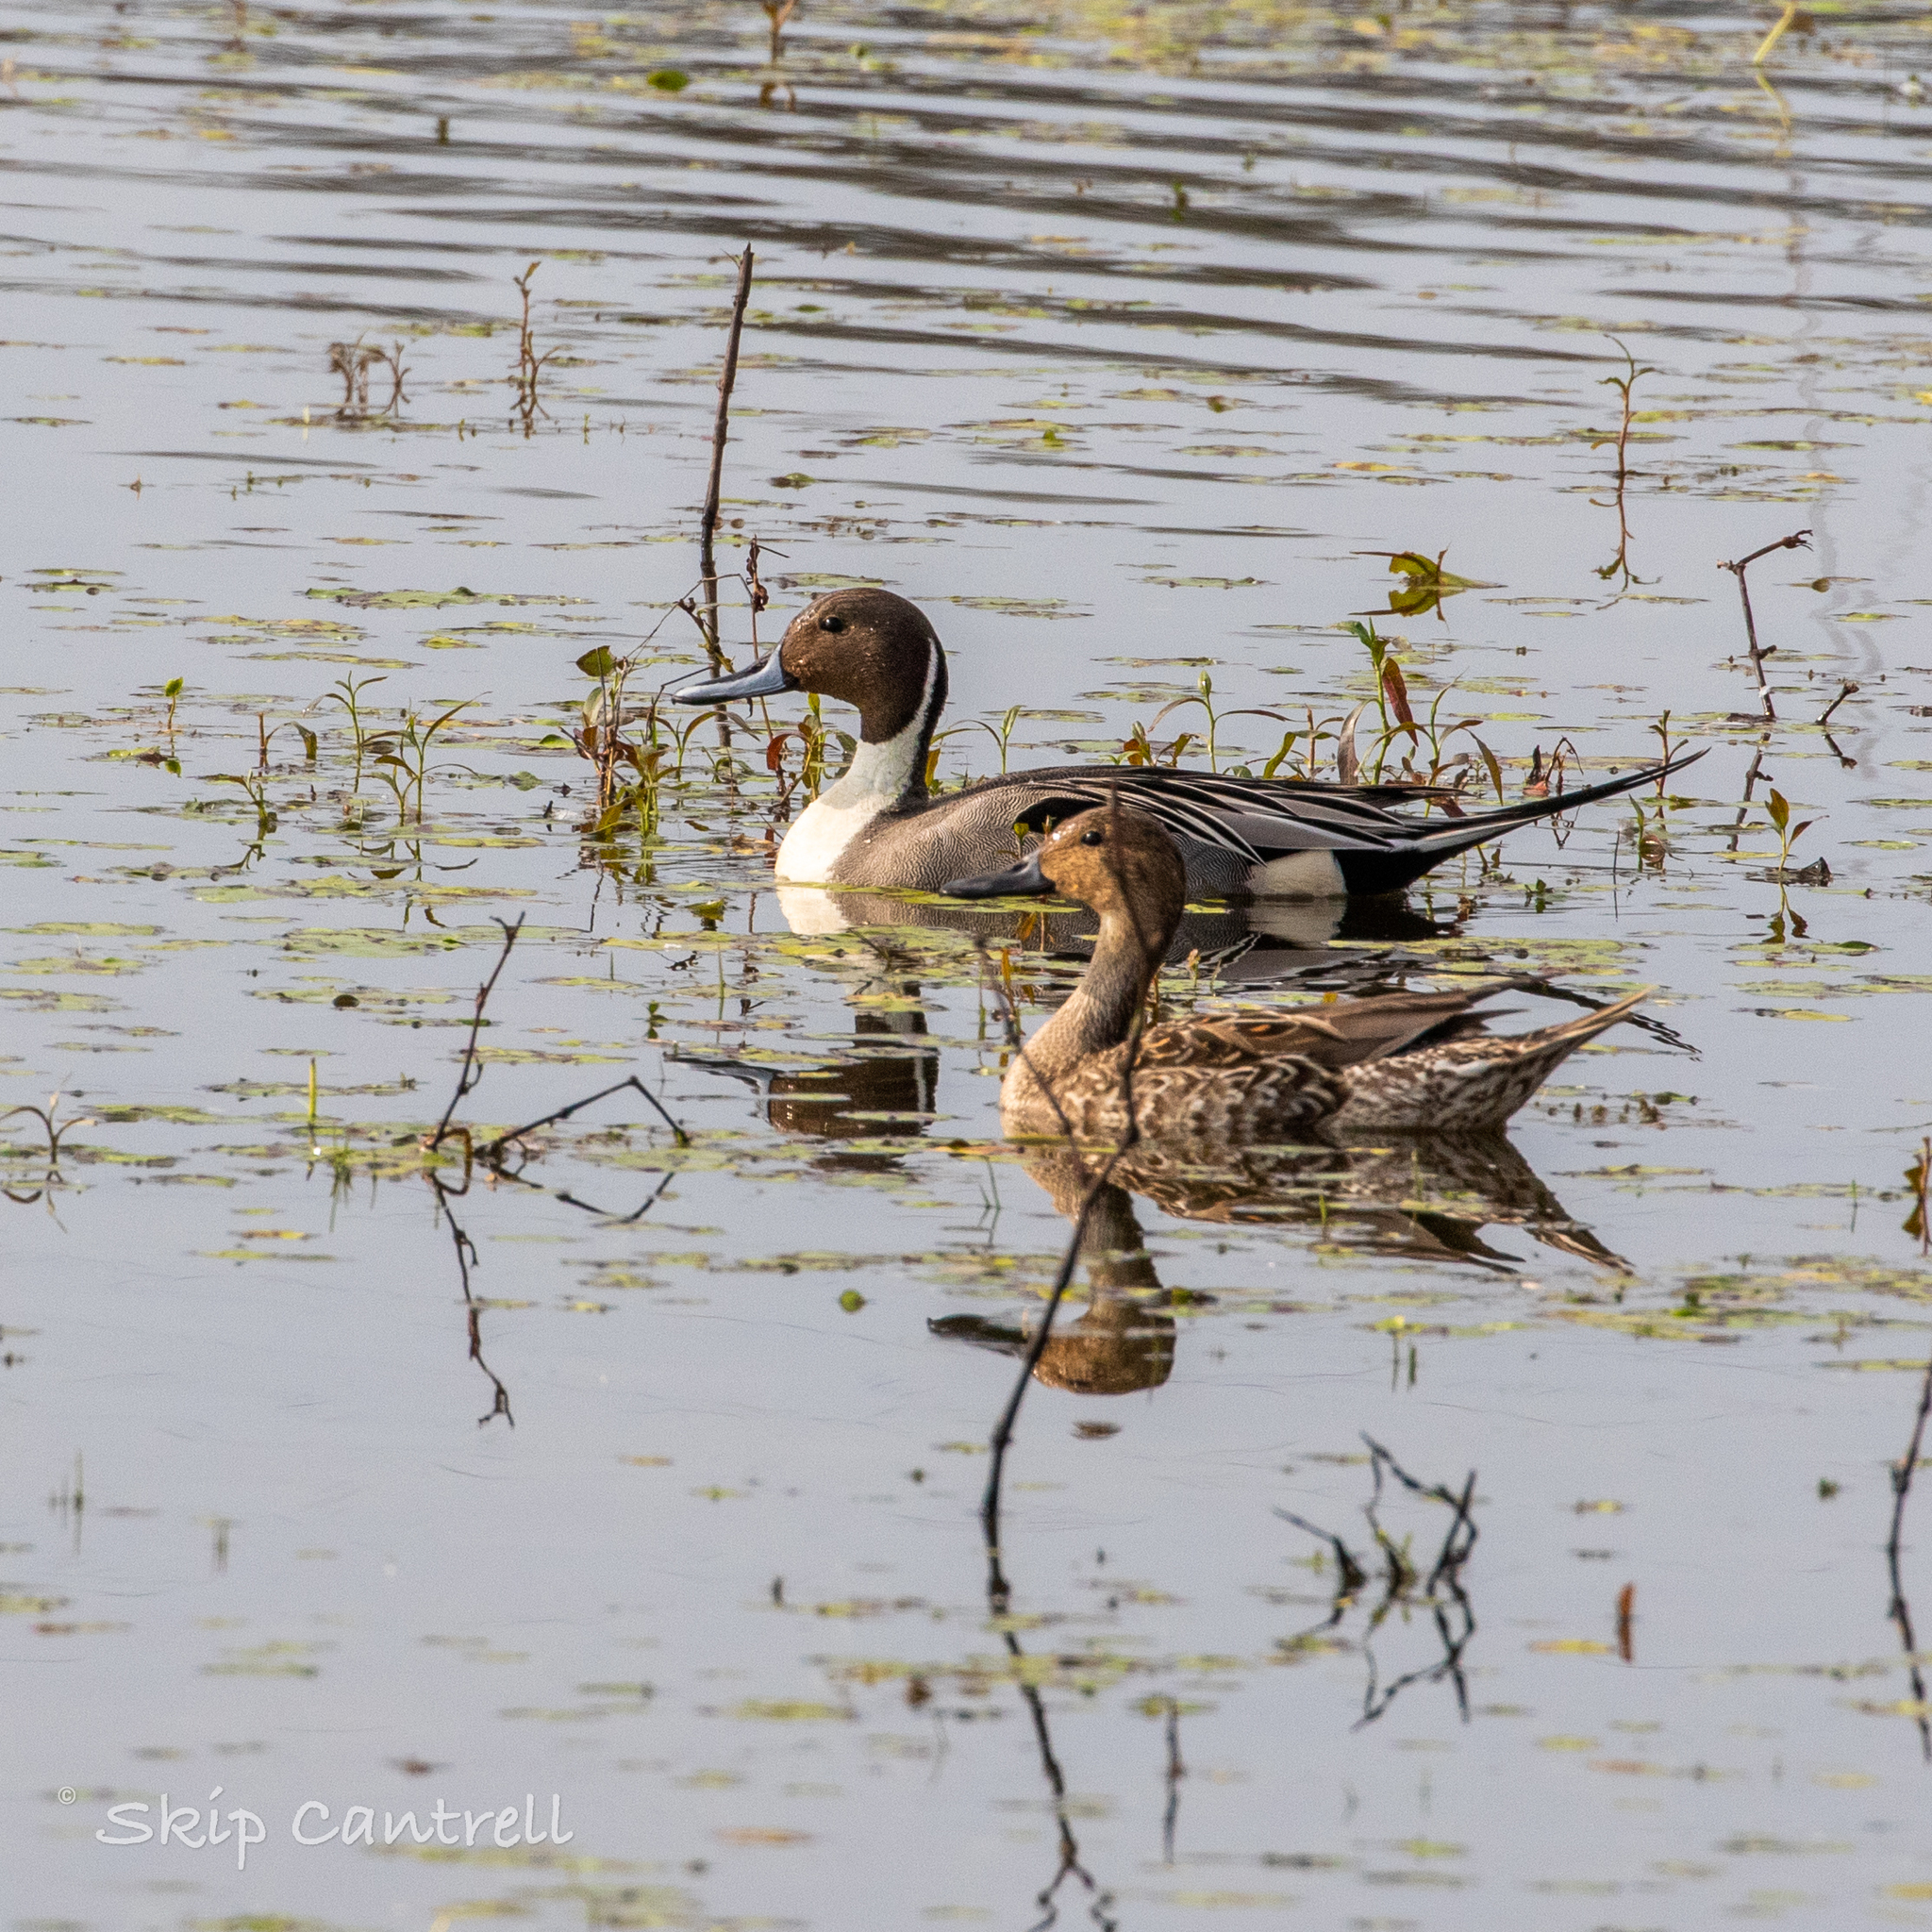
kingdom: Animalia
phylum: Chordata
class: Aves
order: Anseriformes
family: Anatidae
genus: Anas
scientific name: Anas acuta
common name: Northern pintail
